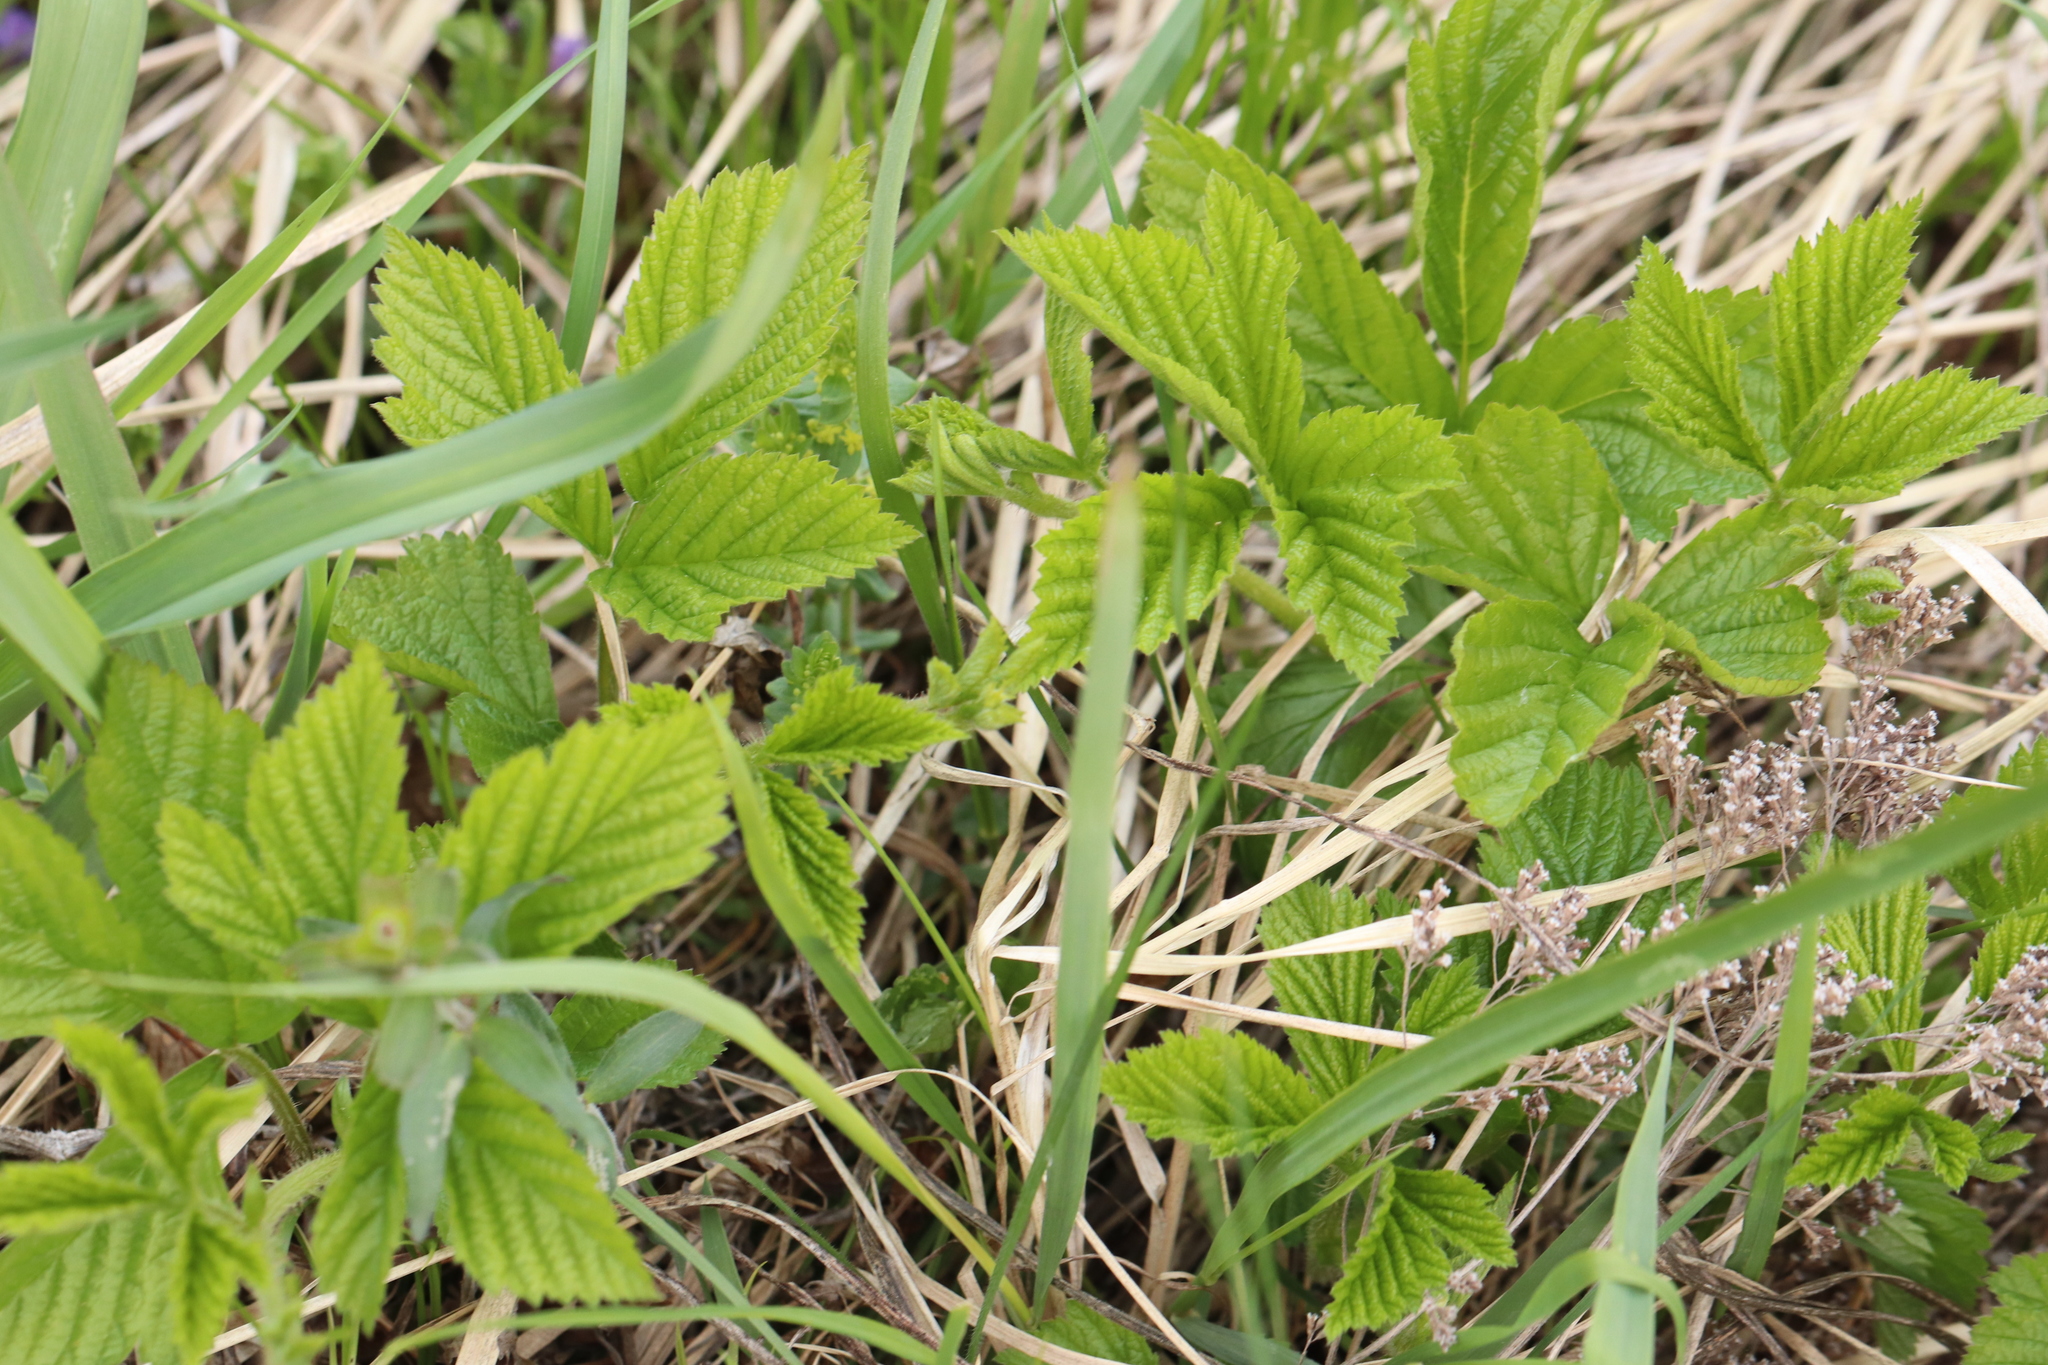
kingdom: Plantae
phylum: Tracheophyta
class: Magnoliopsida
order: Rosales
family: Rosaceae
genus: Rubus
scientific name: Rubus saxatilis
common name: Stone bramble
